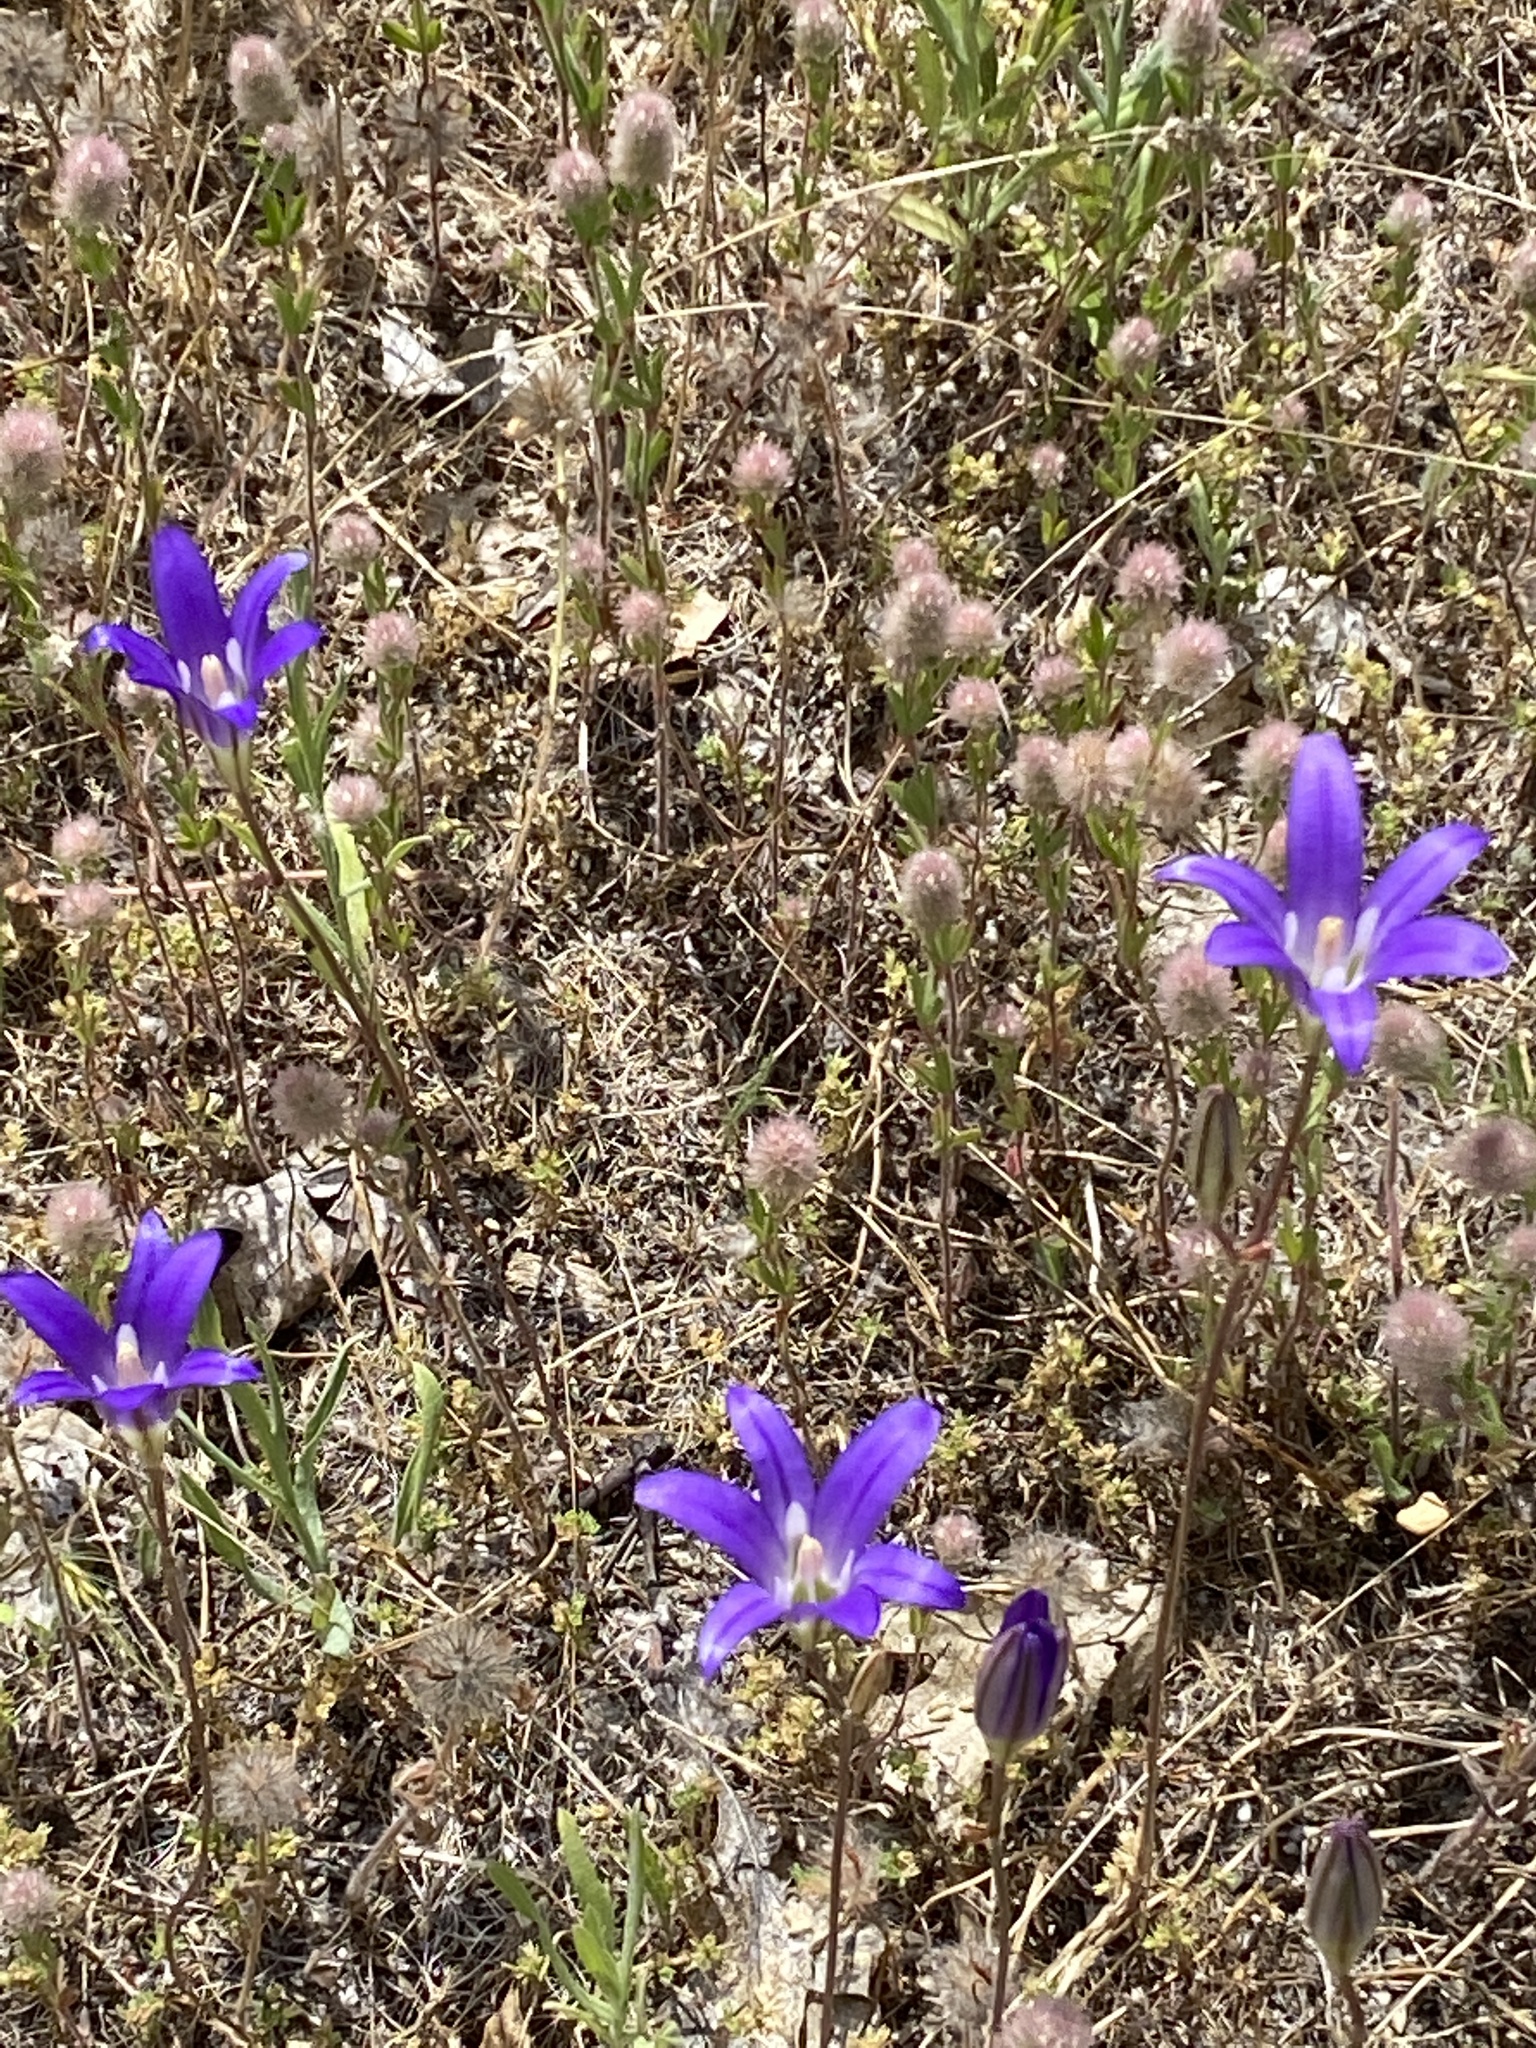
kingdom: Plantae
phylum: Tracheophyta
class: Liliopsida
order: Asparagales
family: Asparagaceae
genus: Brodiaea
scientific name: Brodiaea elegans
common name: Elegant cluster-lily
